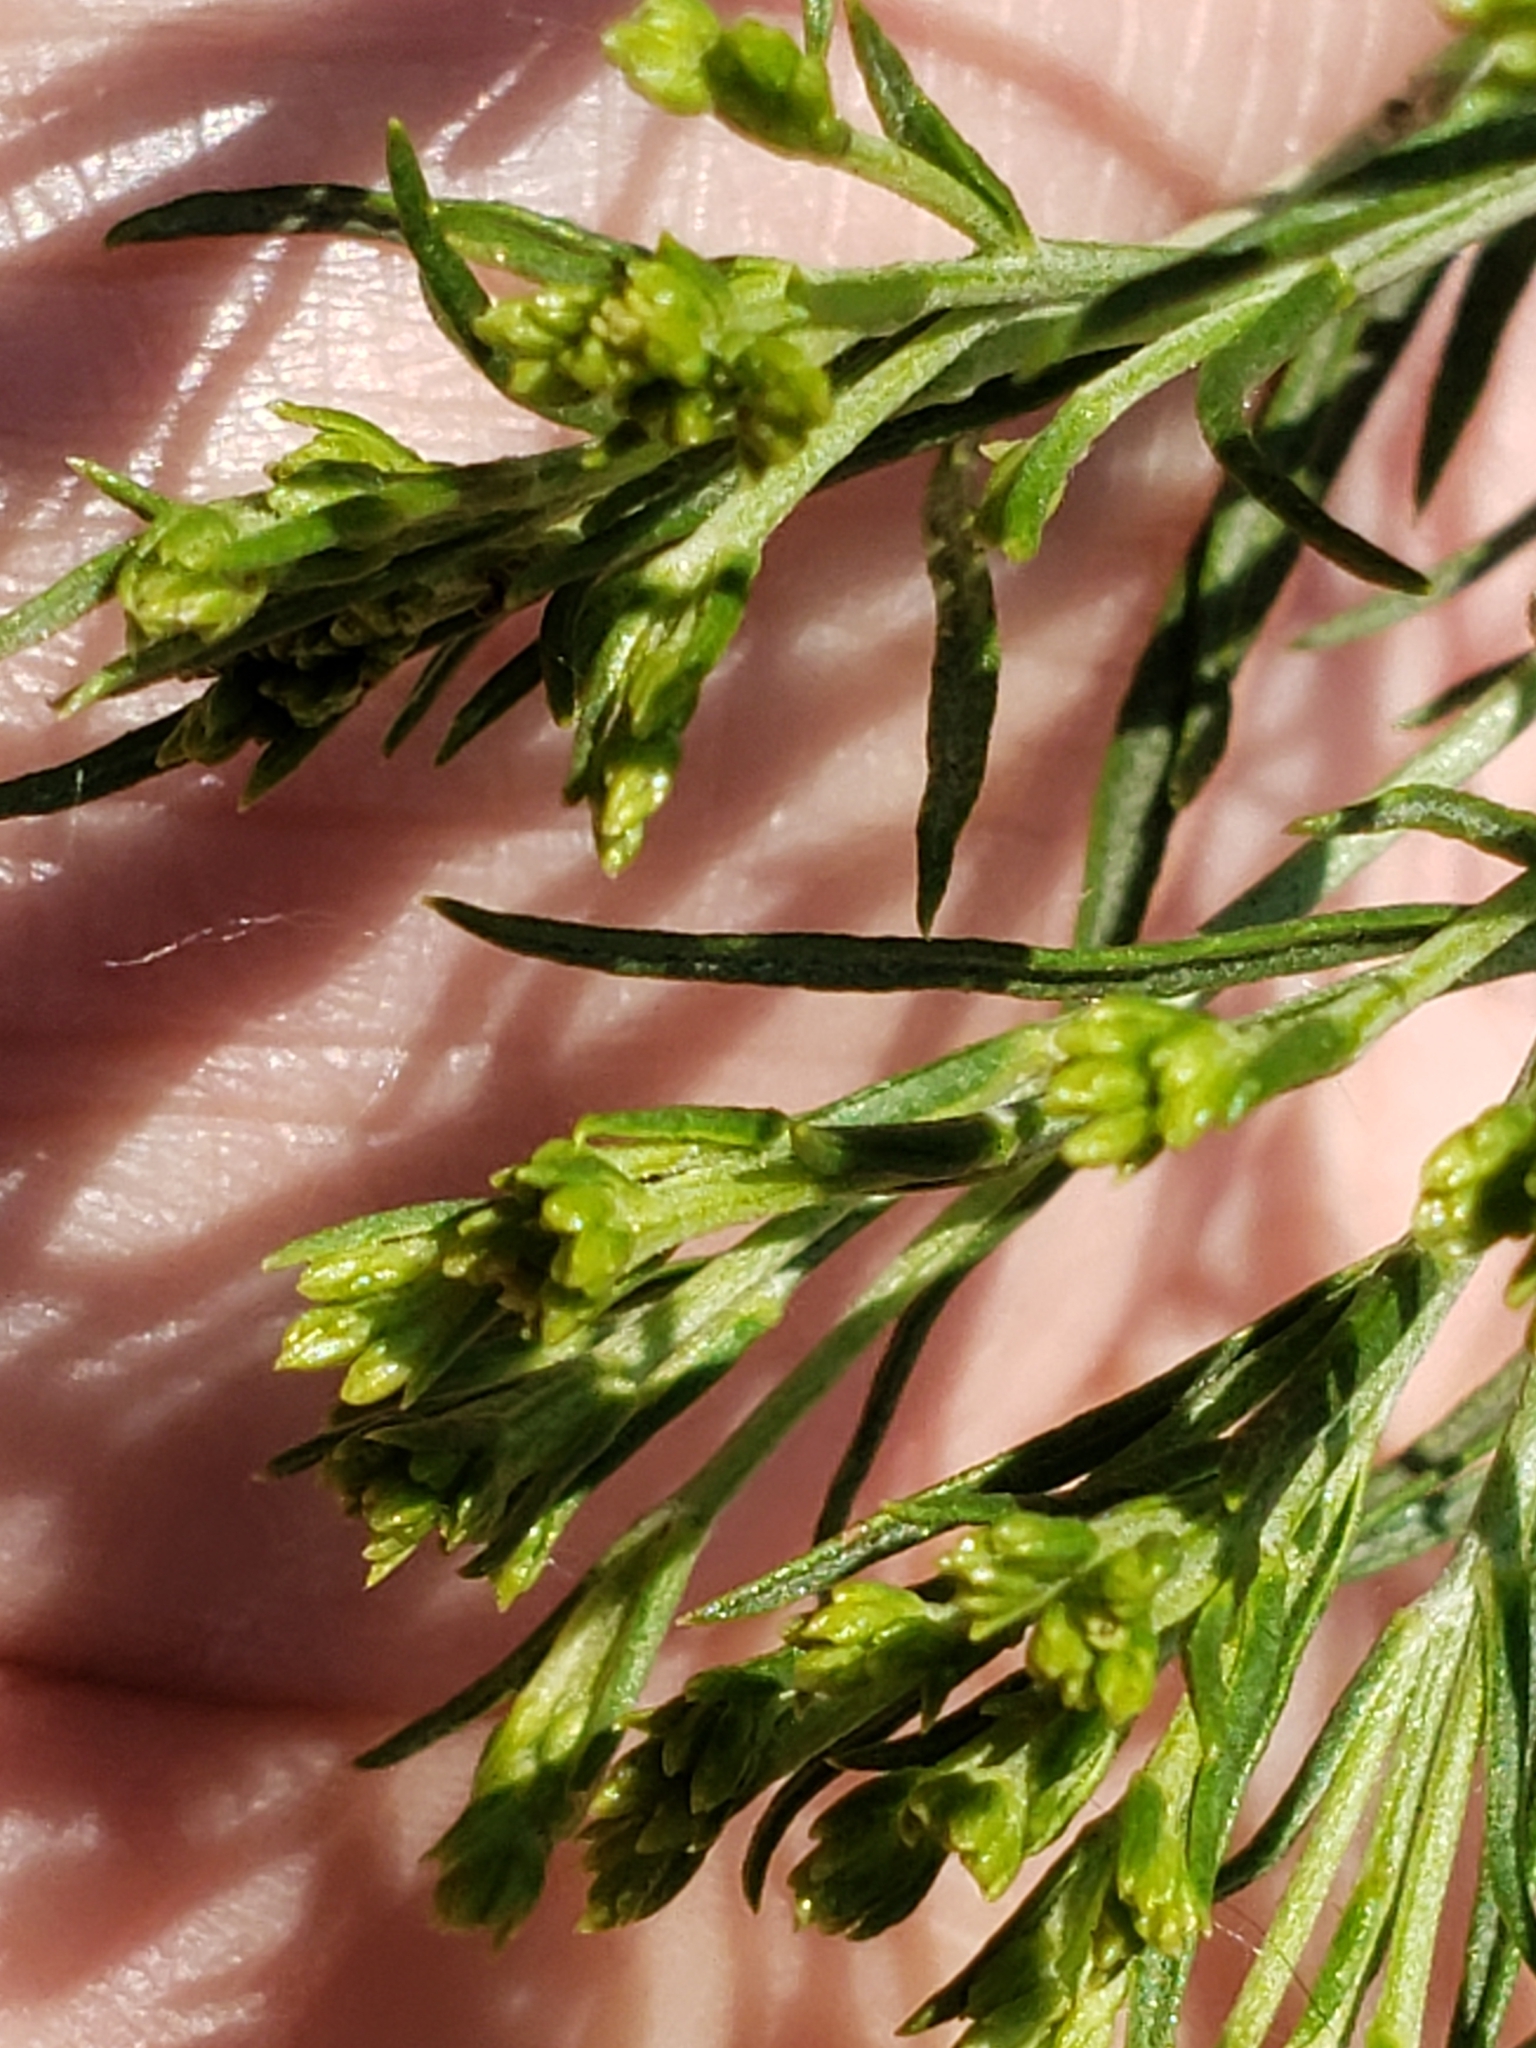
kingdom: Plantae
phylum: Tracheophyta
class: Magnoliopsida
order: Asterales
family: Asteraceae
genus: Ericameria
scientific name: Ericameria nauseosa
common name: Rubber rabbitbrush
